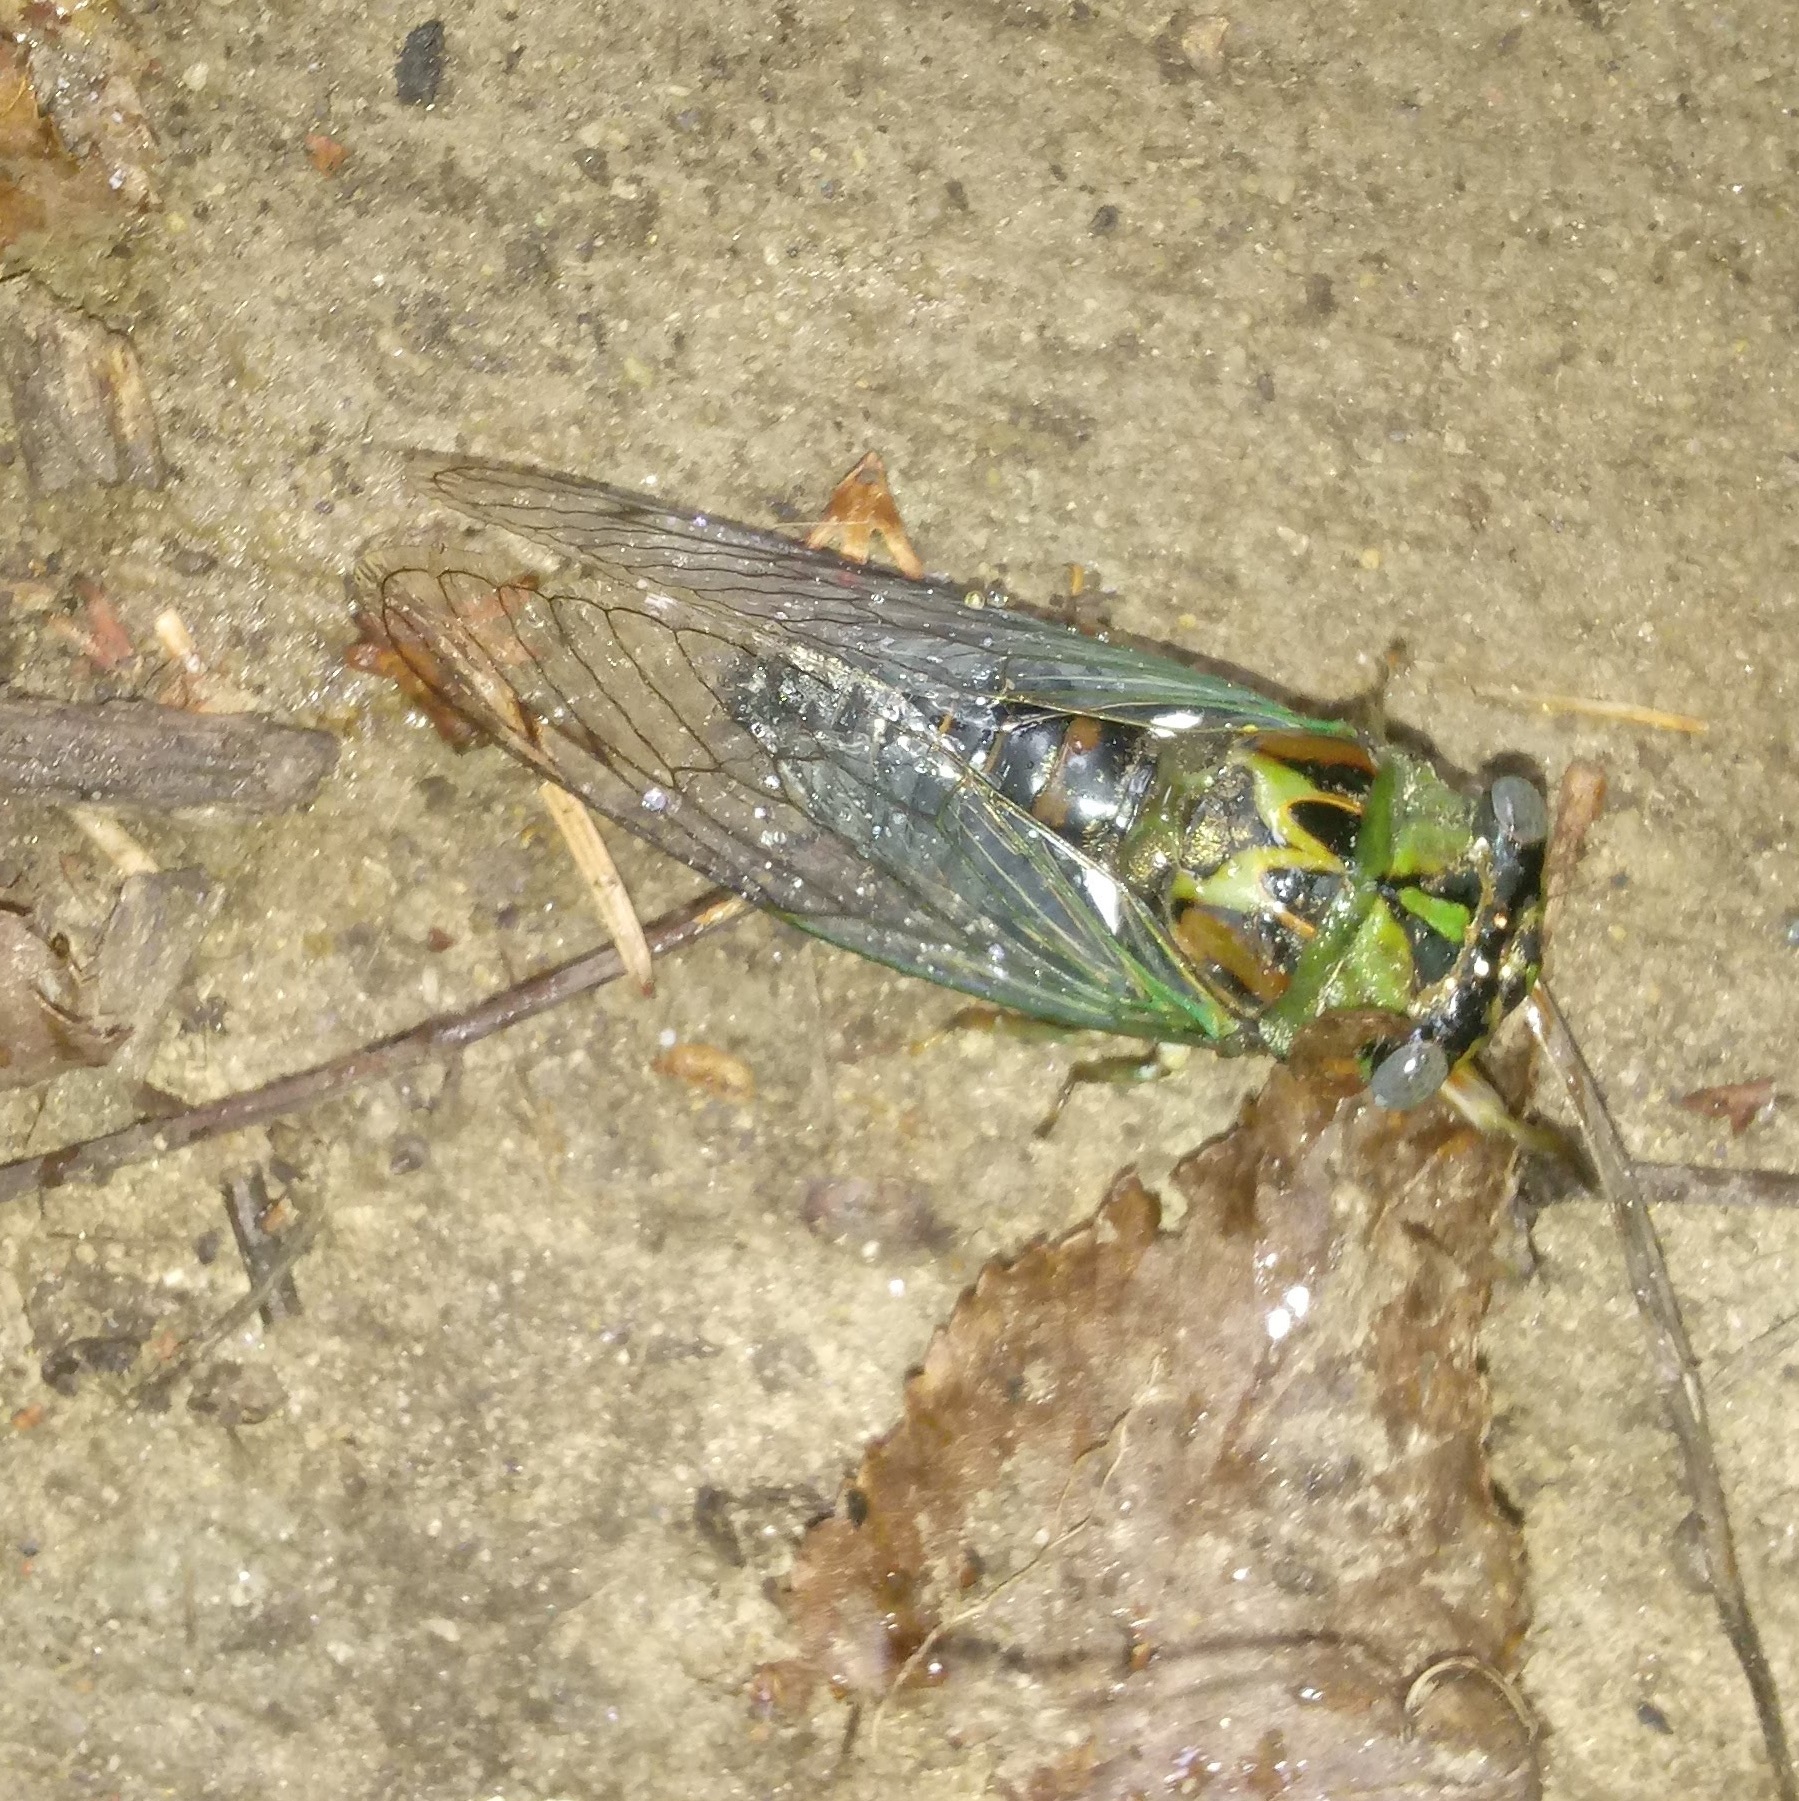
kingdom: Animalia
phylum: Arthropoda
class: Insecta
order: Hemiptera
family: Cicadidae
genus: Neotibicen
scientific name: Neotibicen winnemanna
